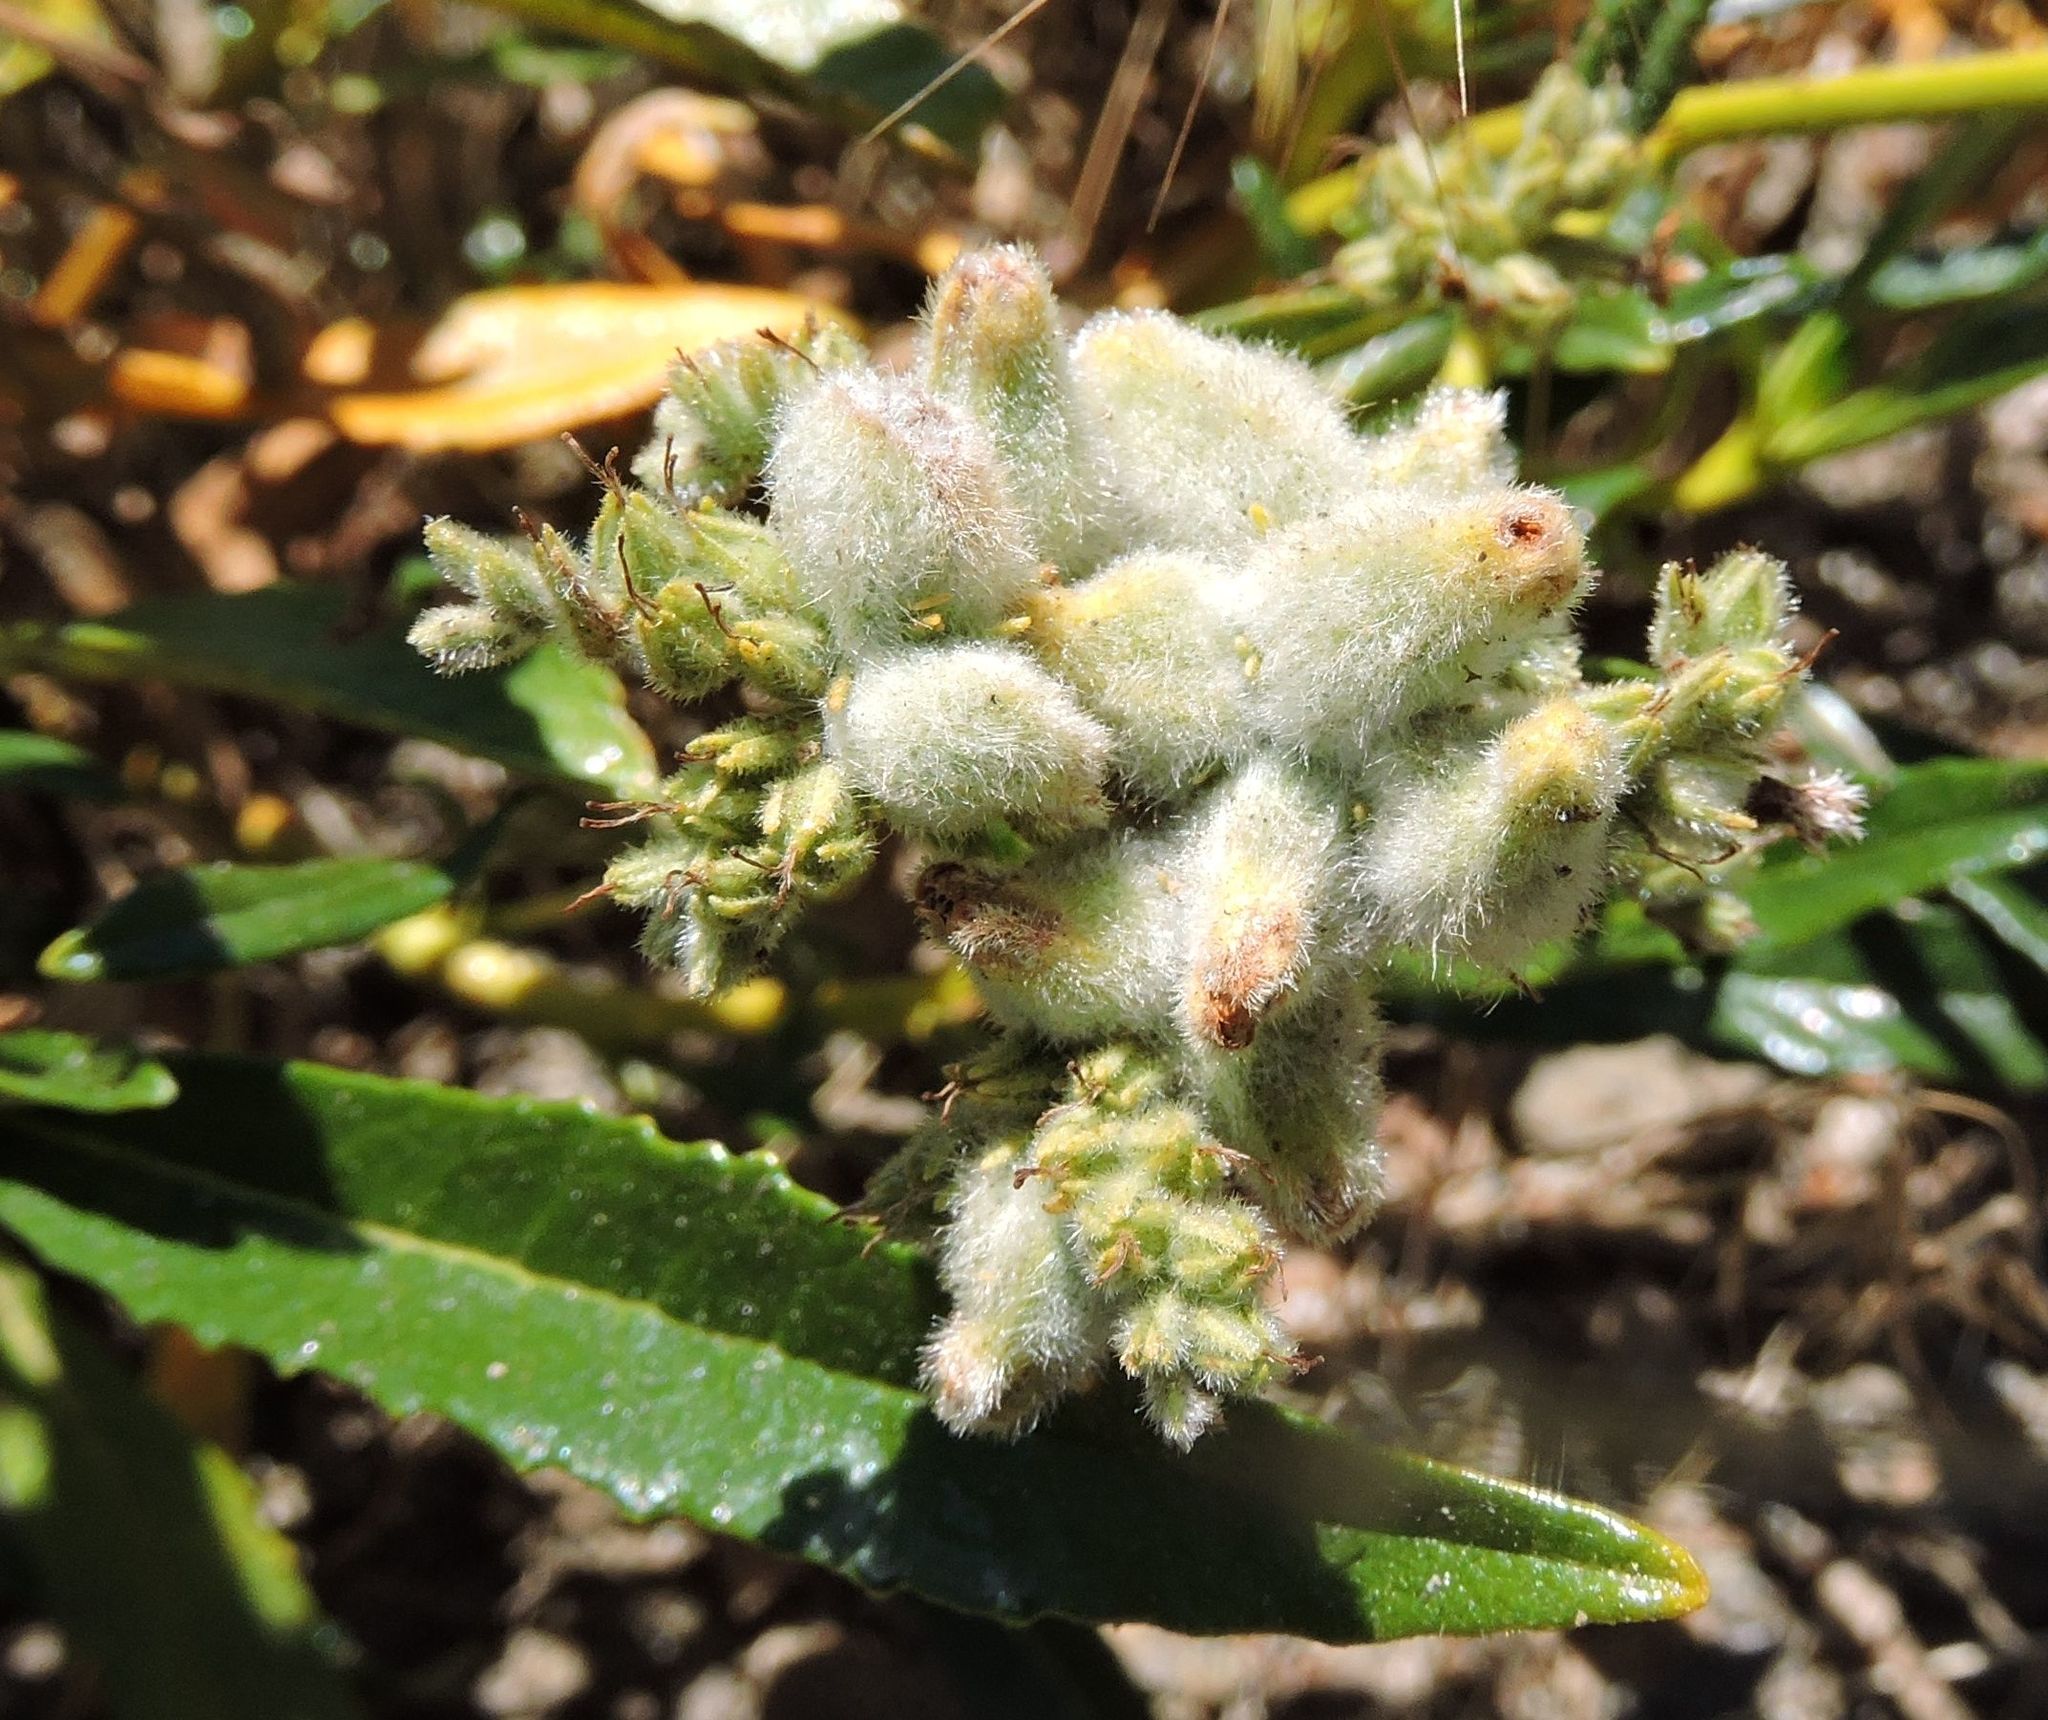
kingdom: Plantae
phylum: Tracheophyta
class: Magnoliopsida
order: Boraginales
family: Namaceae
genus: Eriodictyon
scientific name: Eriodictyon trichocalyx
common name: Hairy yerba-santa
